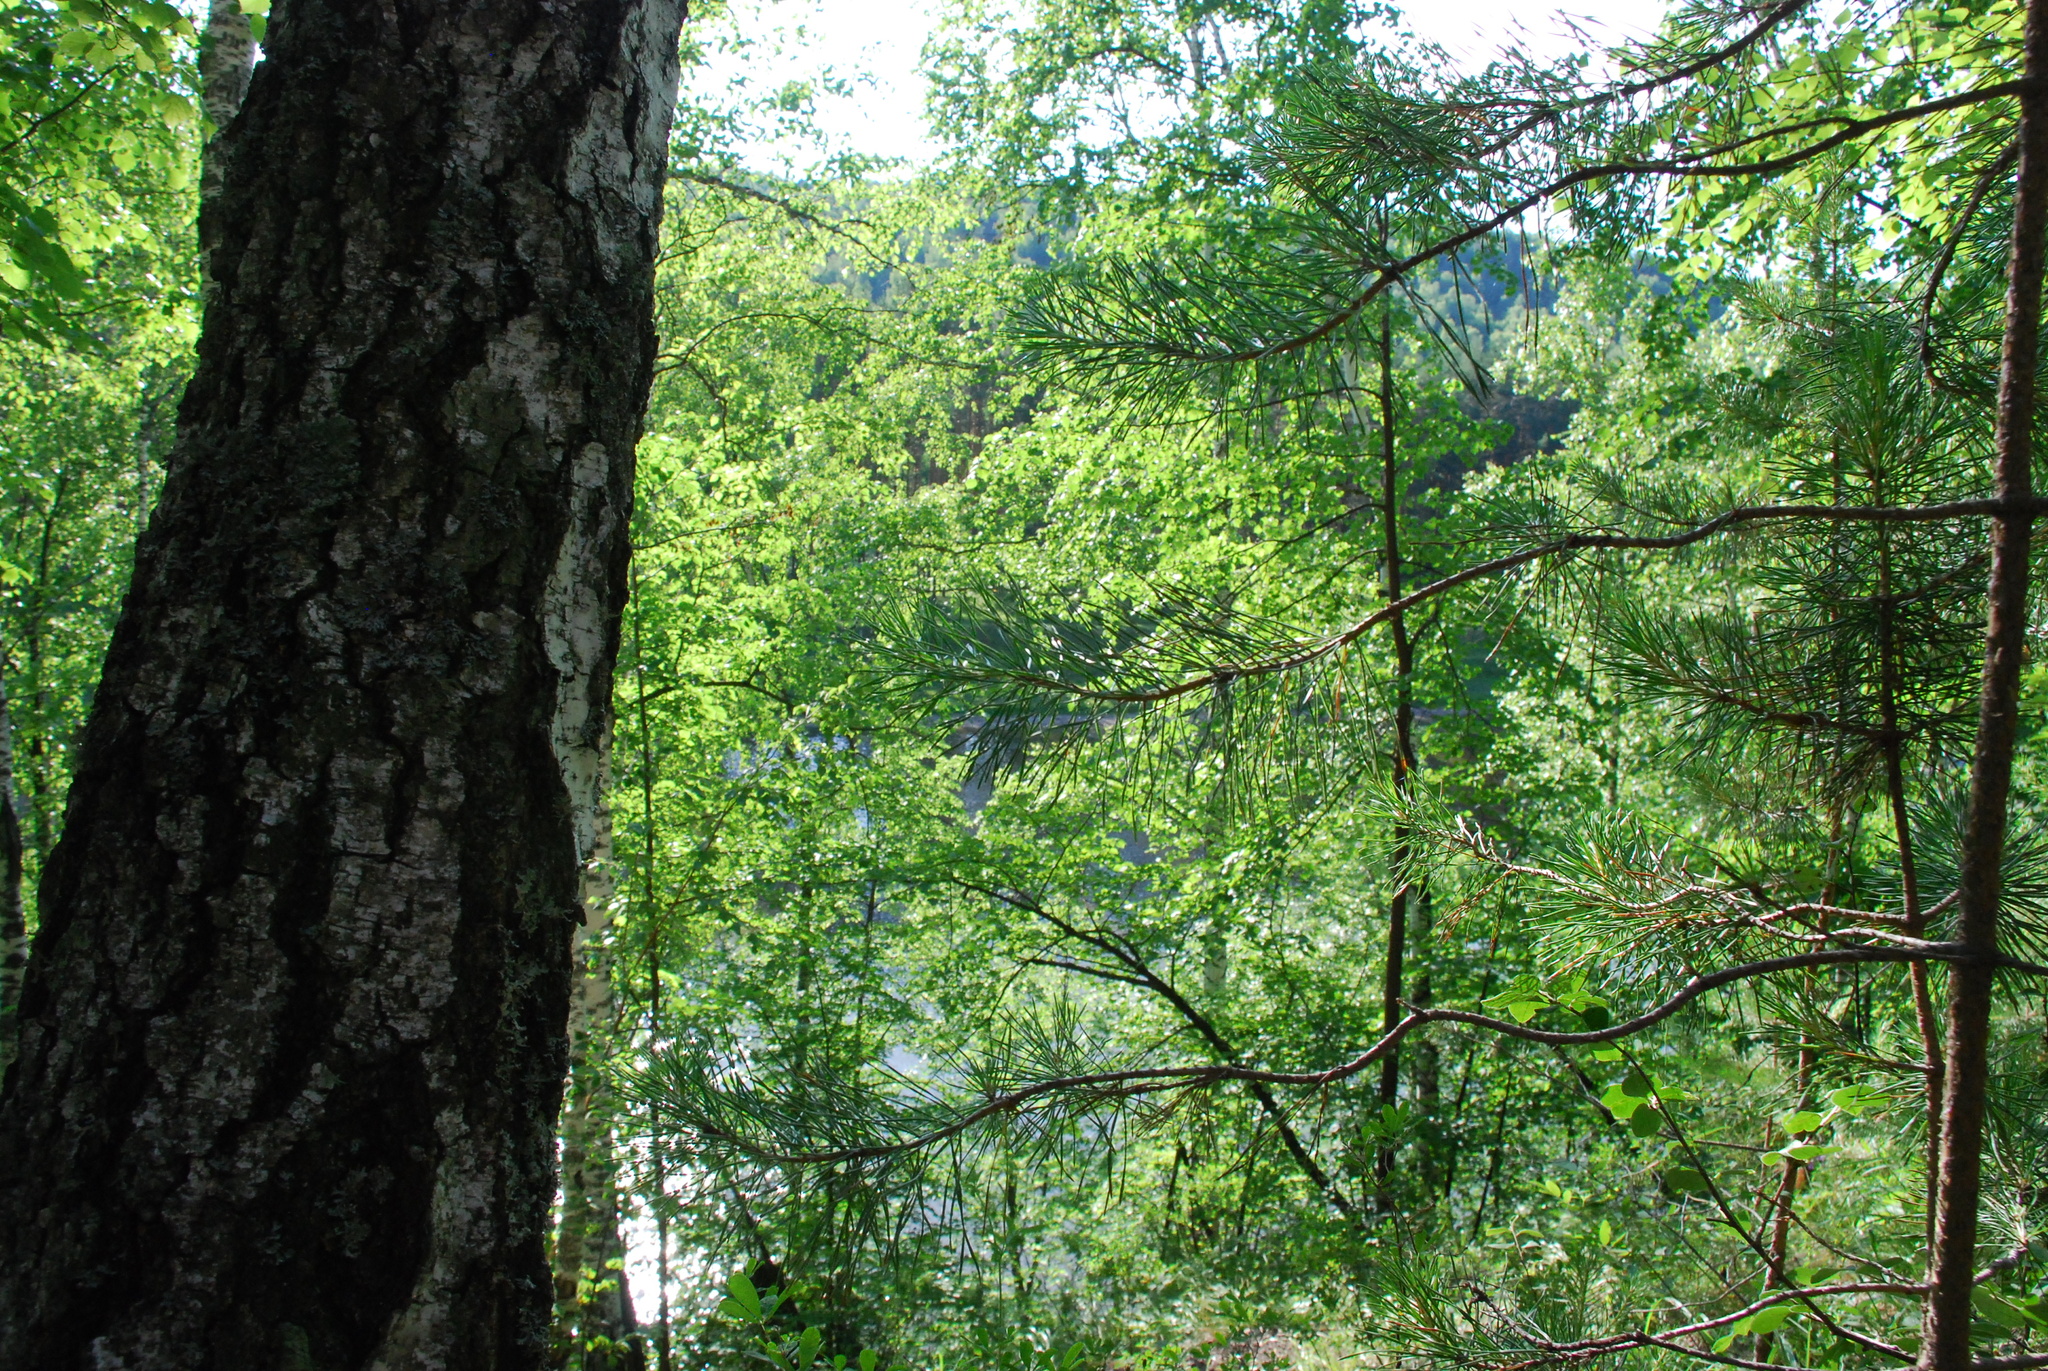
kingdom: Plantae
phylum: Tracheophyta
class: Magnoliopsida
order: Fagales
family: Betulaceae
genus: Betula
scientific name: Betula
